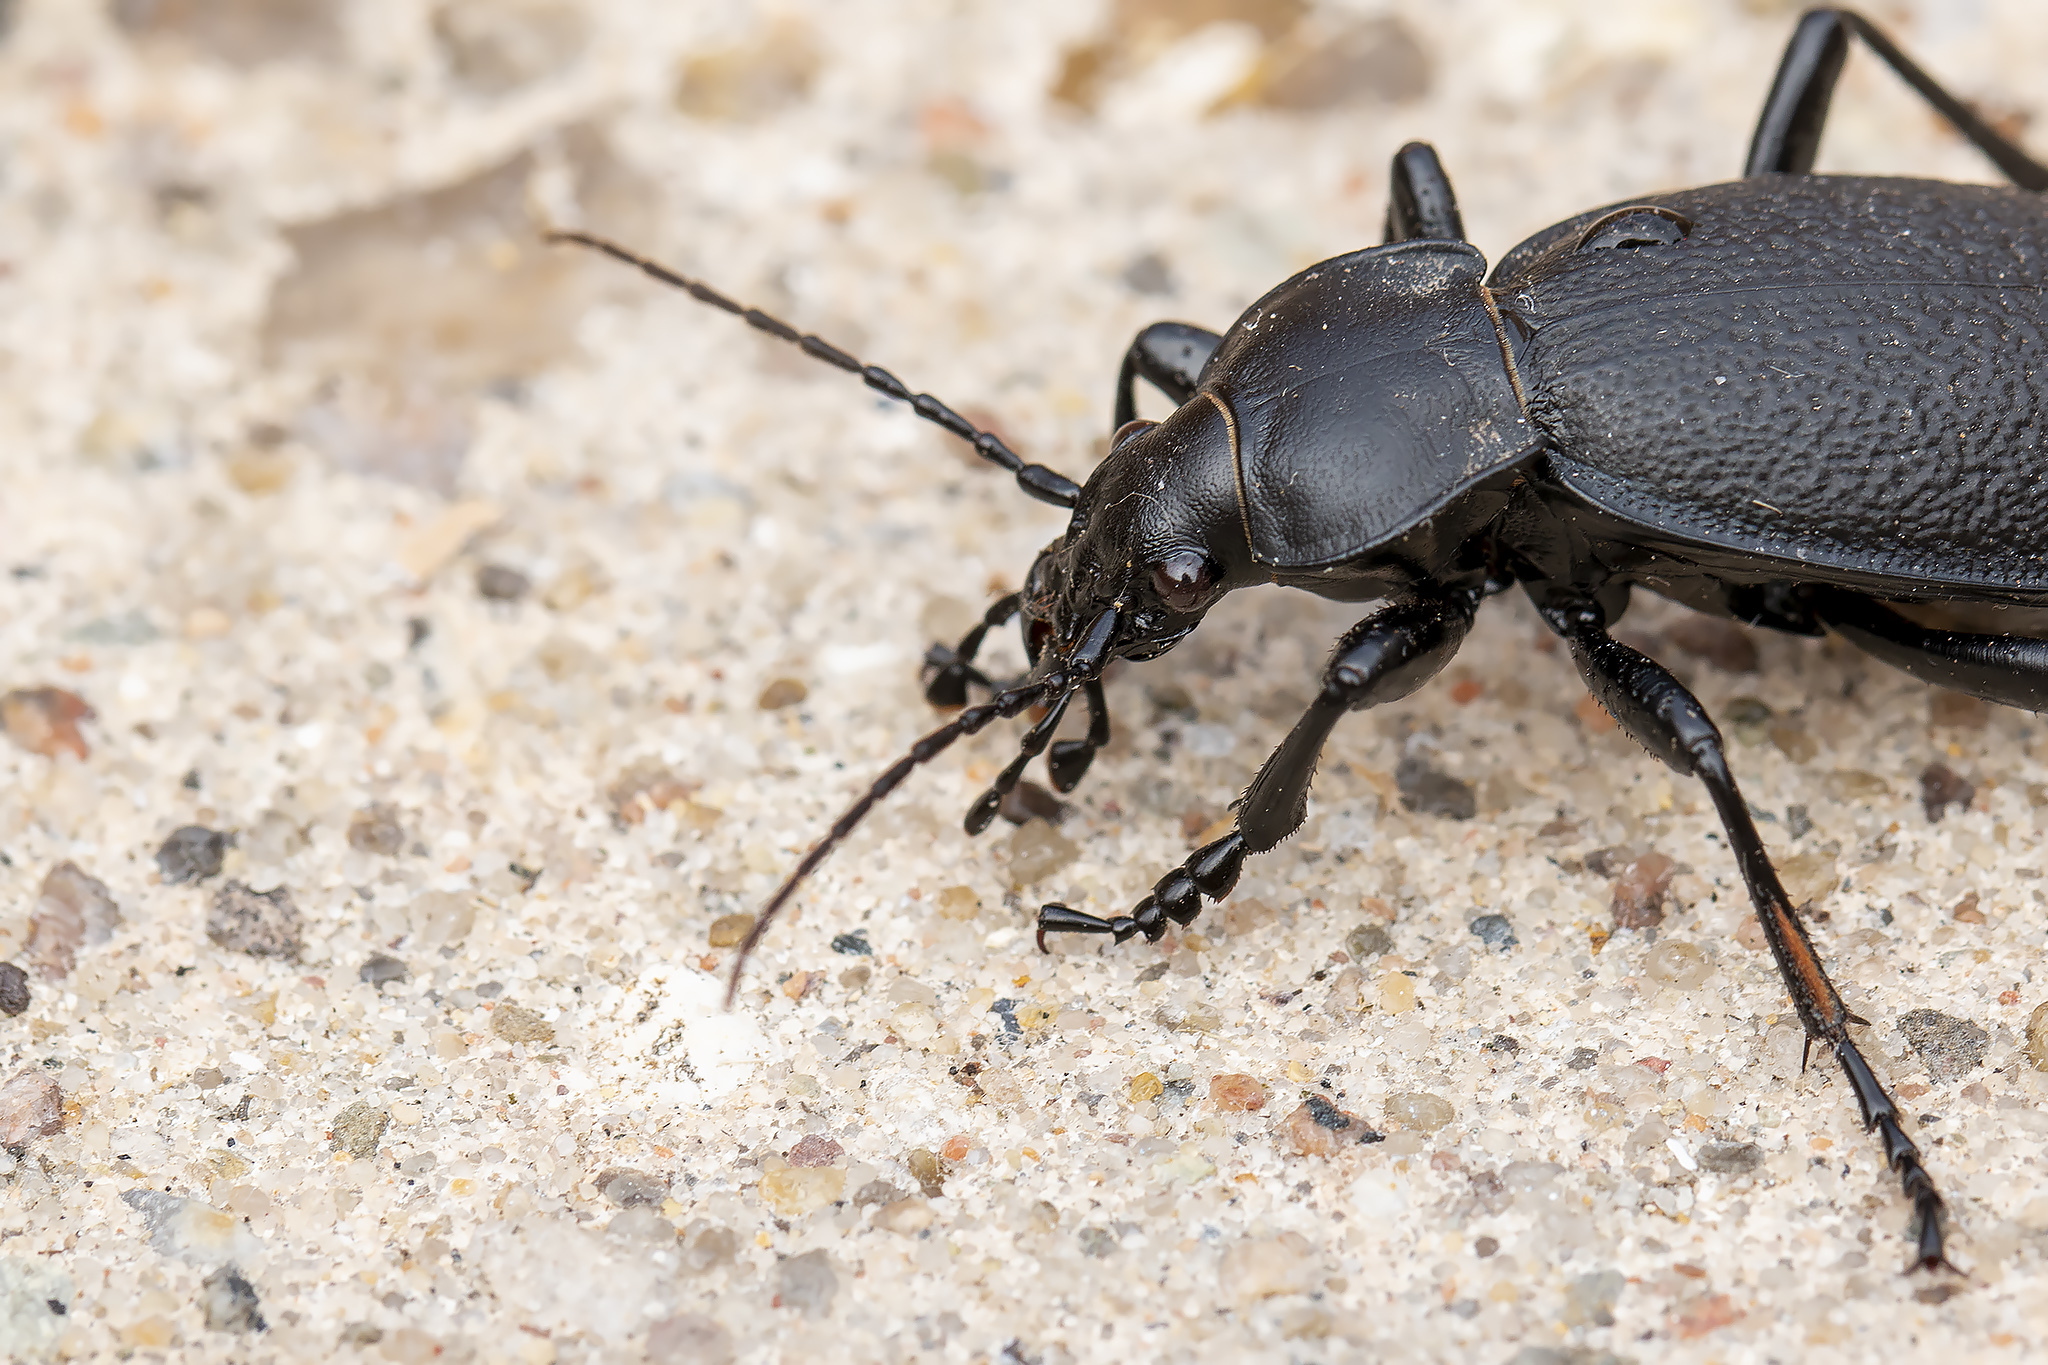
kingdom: Animalia
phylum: Arthropoda
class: Insecta
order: Coleoptera
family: Carabidae
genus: Carabus
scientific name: Carabus coriaceus
